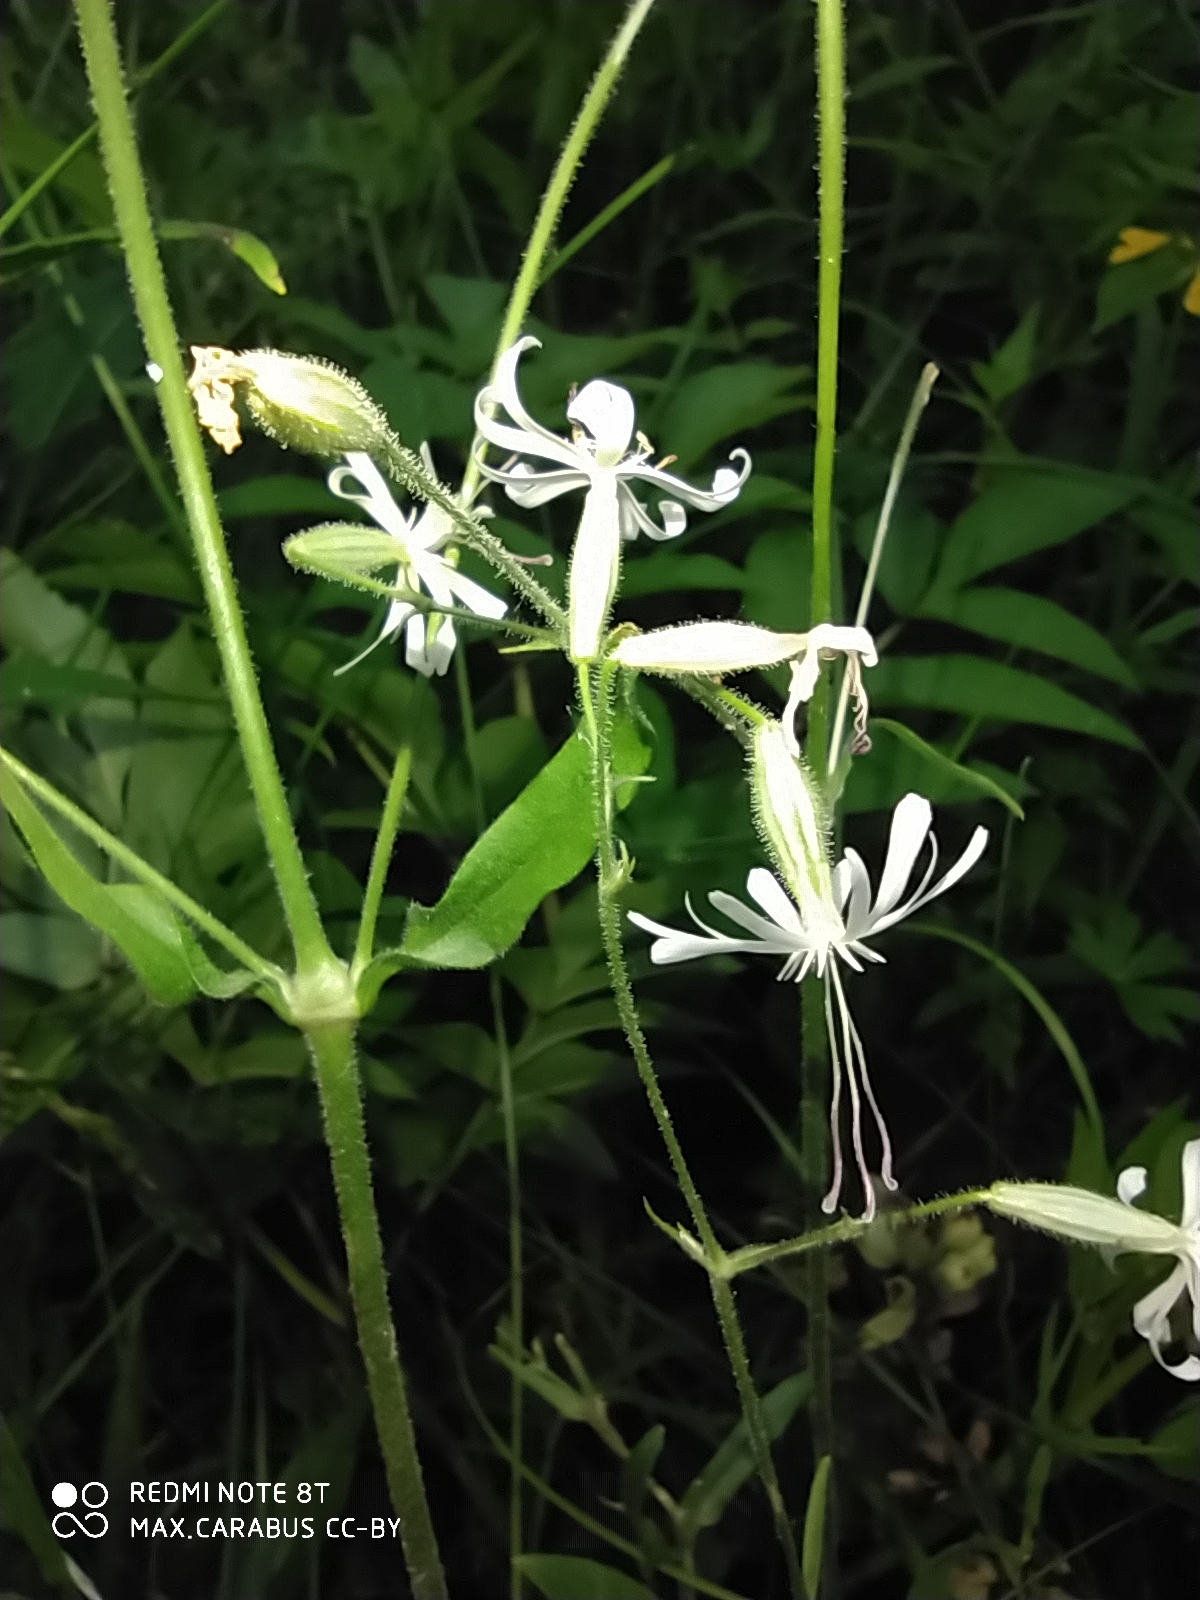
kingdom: Plantae
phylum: Tracheophyta
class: Magnoliopsida
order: Caryophyllales
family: Caryophyllaceae
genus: Silene
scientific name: Silene nutans
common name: Nottingham catchfly
